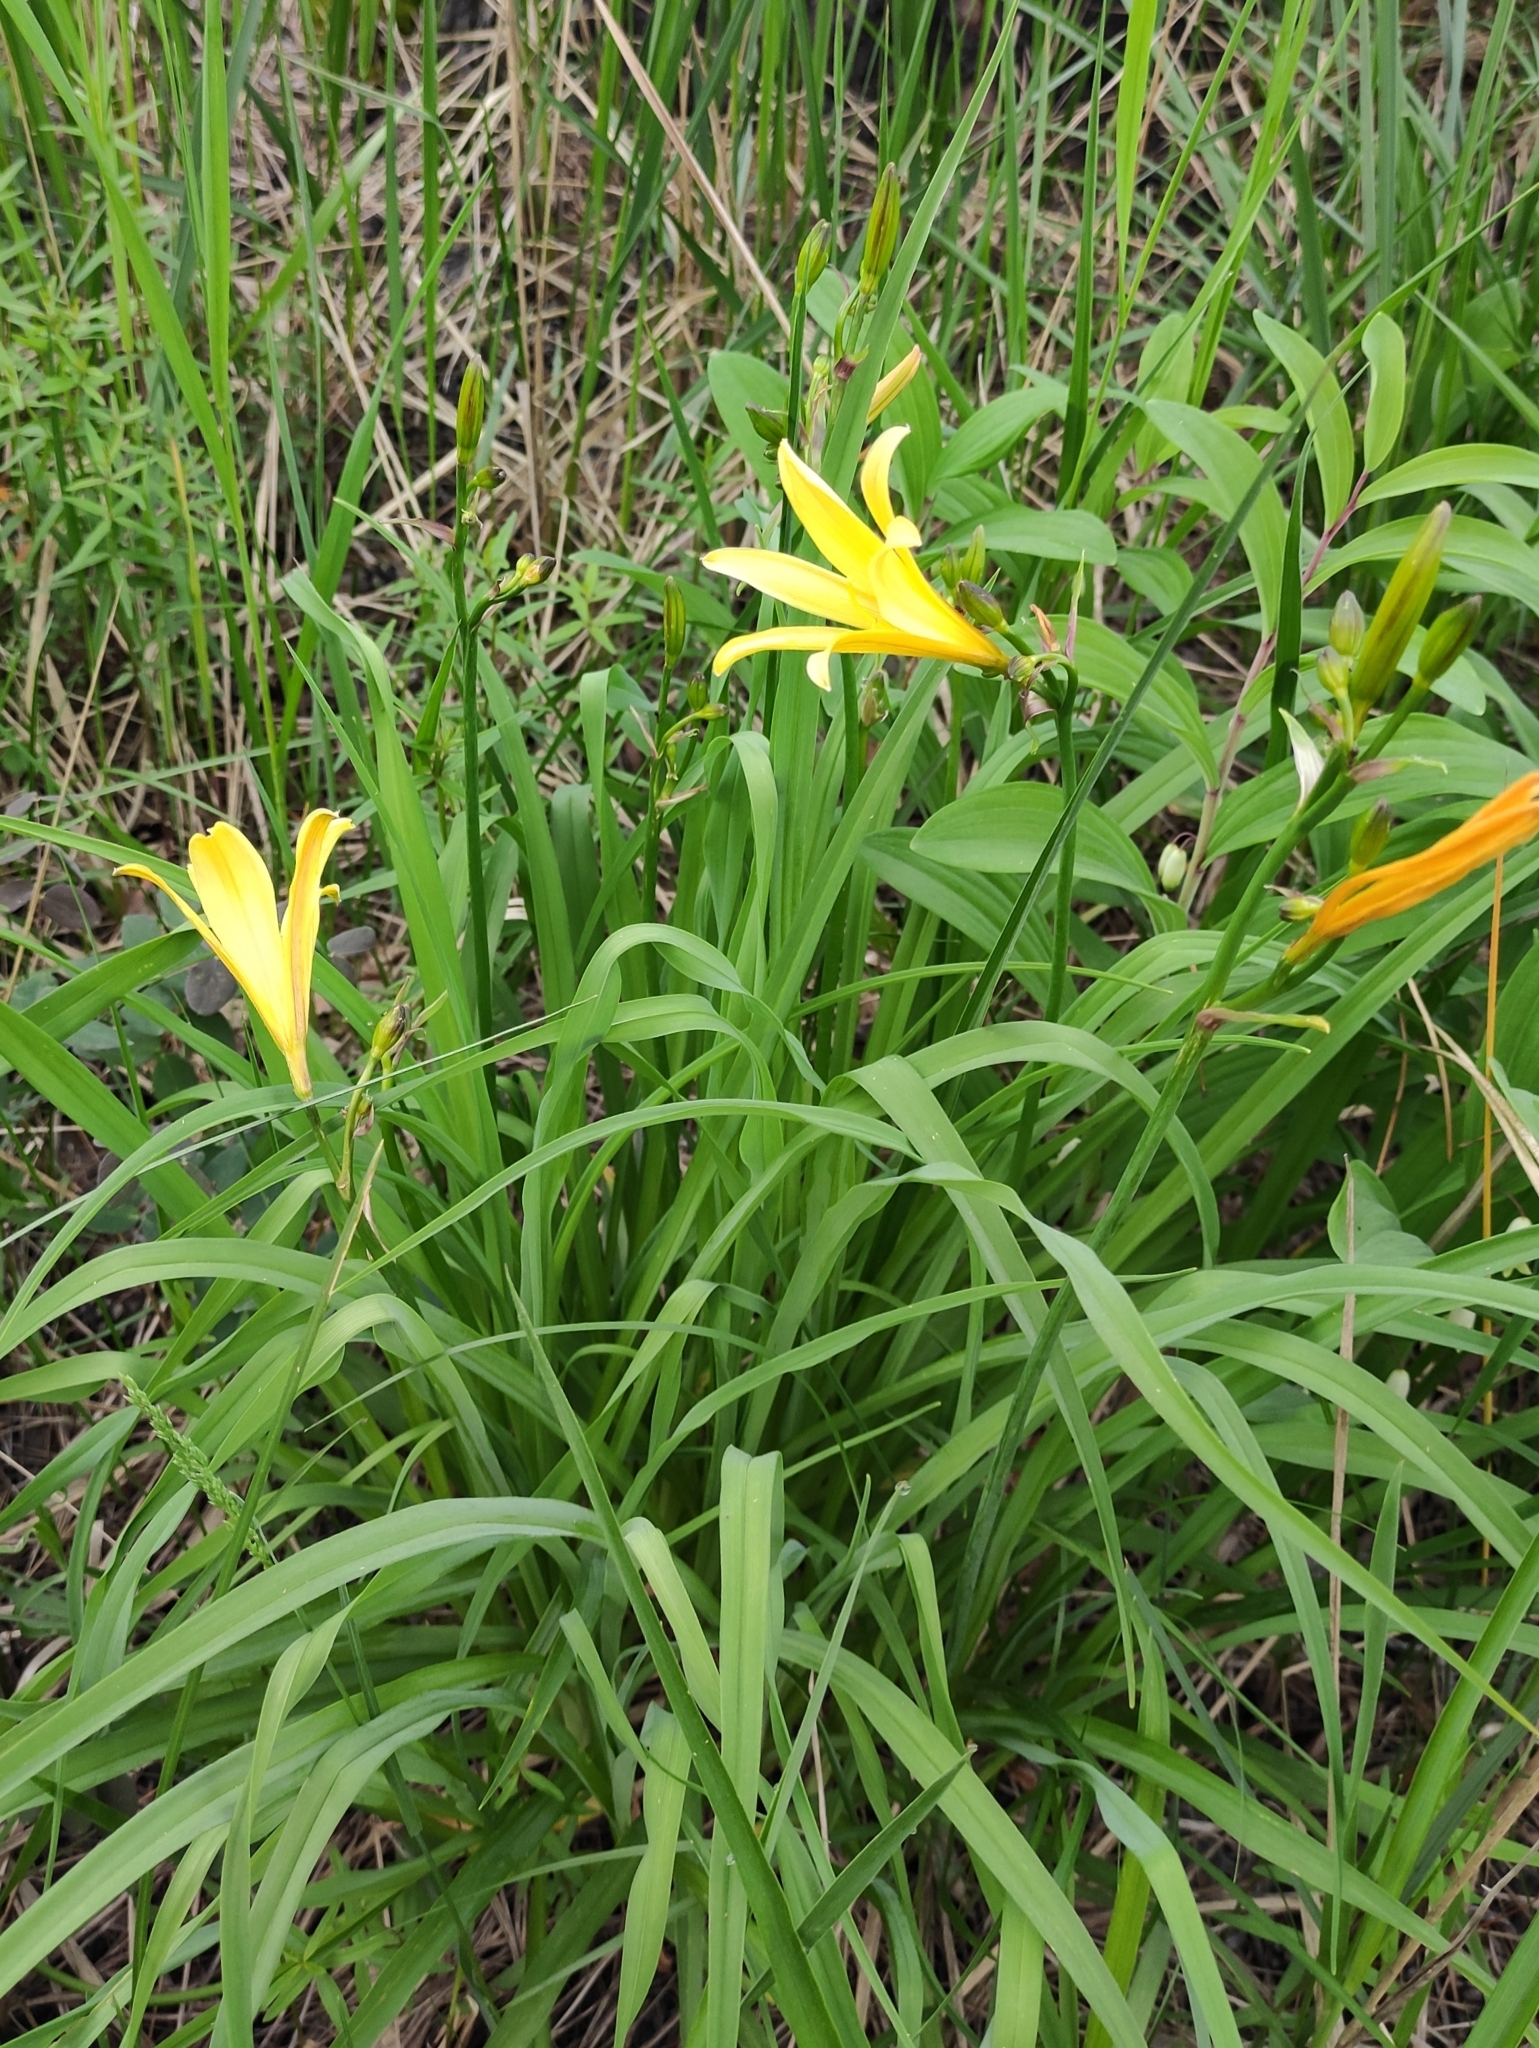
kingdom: Plantae
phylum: Tracheophyta
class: Liliopsida
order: Asparagales
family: Asphodelaceae
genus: Hemerocallis
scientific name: Hemerocallis minor
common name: Small daylily
